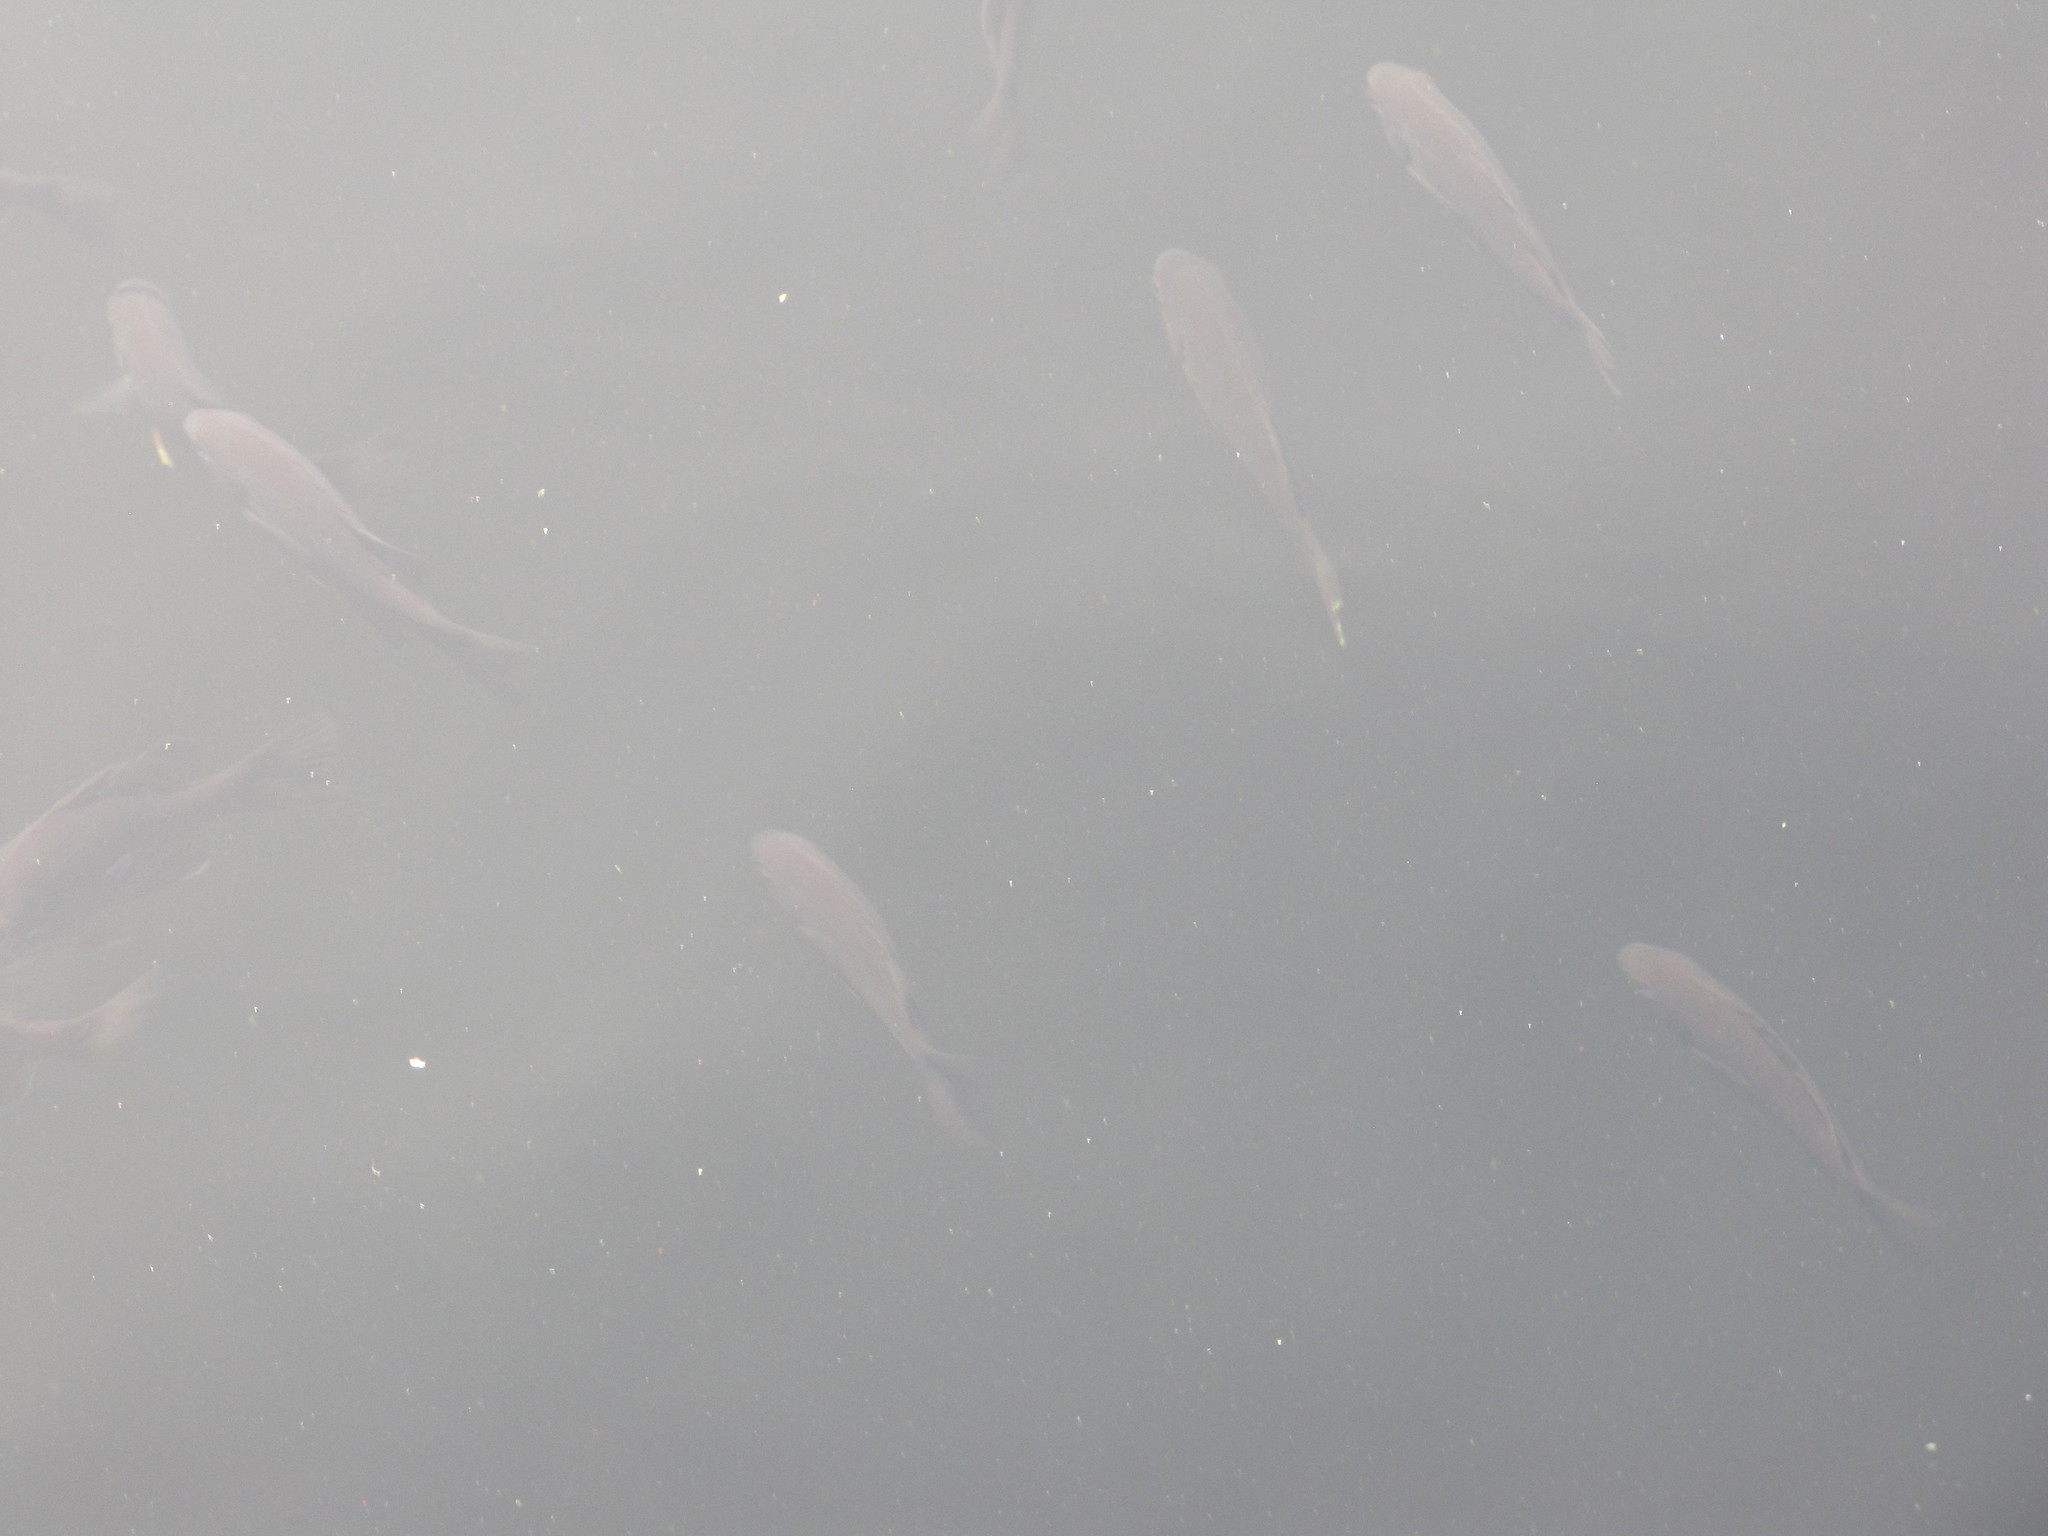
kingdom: Animalia
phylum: Chordata
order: Perciformes
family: Centrarchidae
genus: Lepomis
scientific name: Lepomis gibbosus
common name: Pumpkinseed
